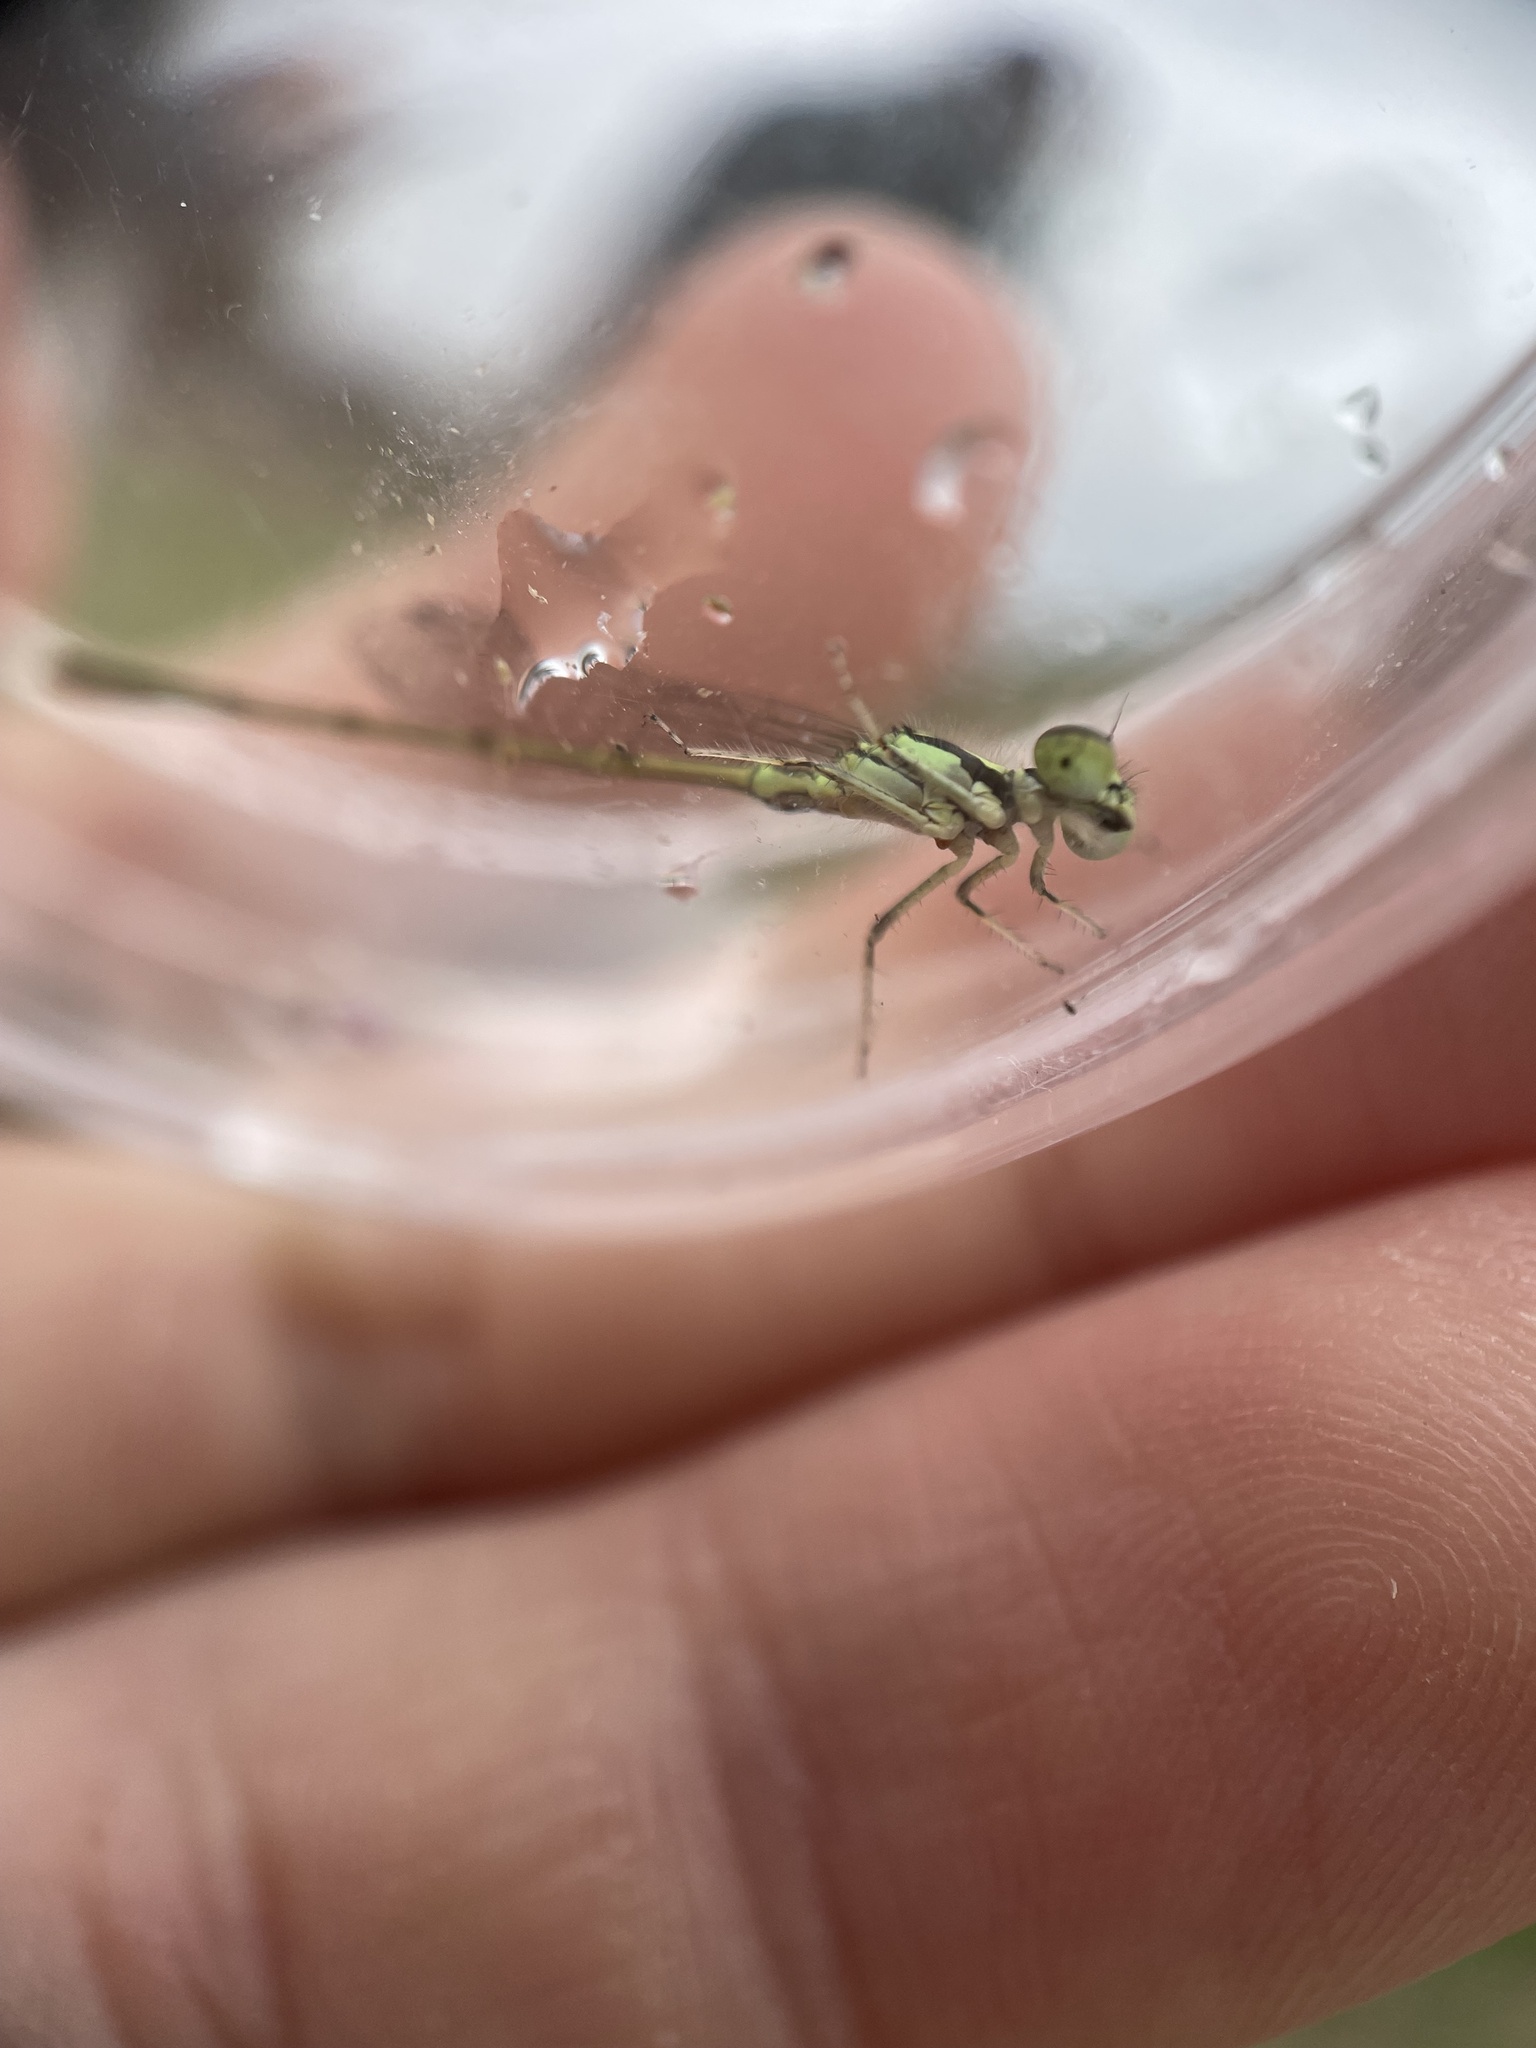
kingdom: Animalia
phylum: Arthropoda
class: Insecta
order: Odonata
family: Coenagrionidae
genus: Ischnura
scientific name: Ischnura posita
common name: Fragile forktail
